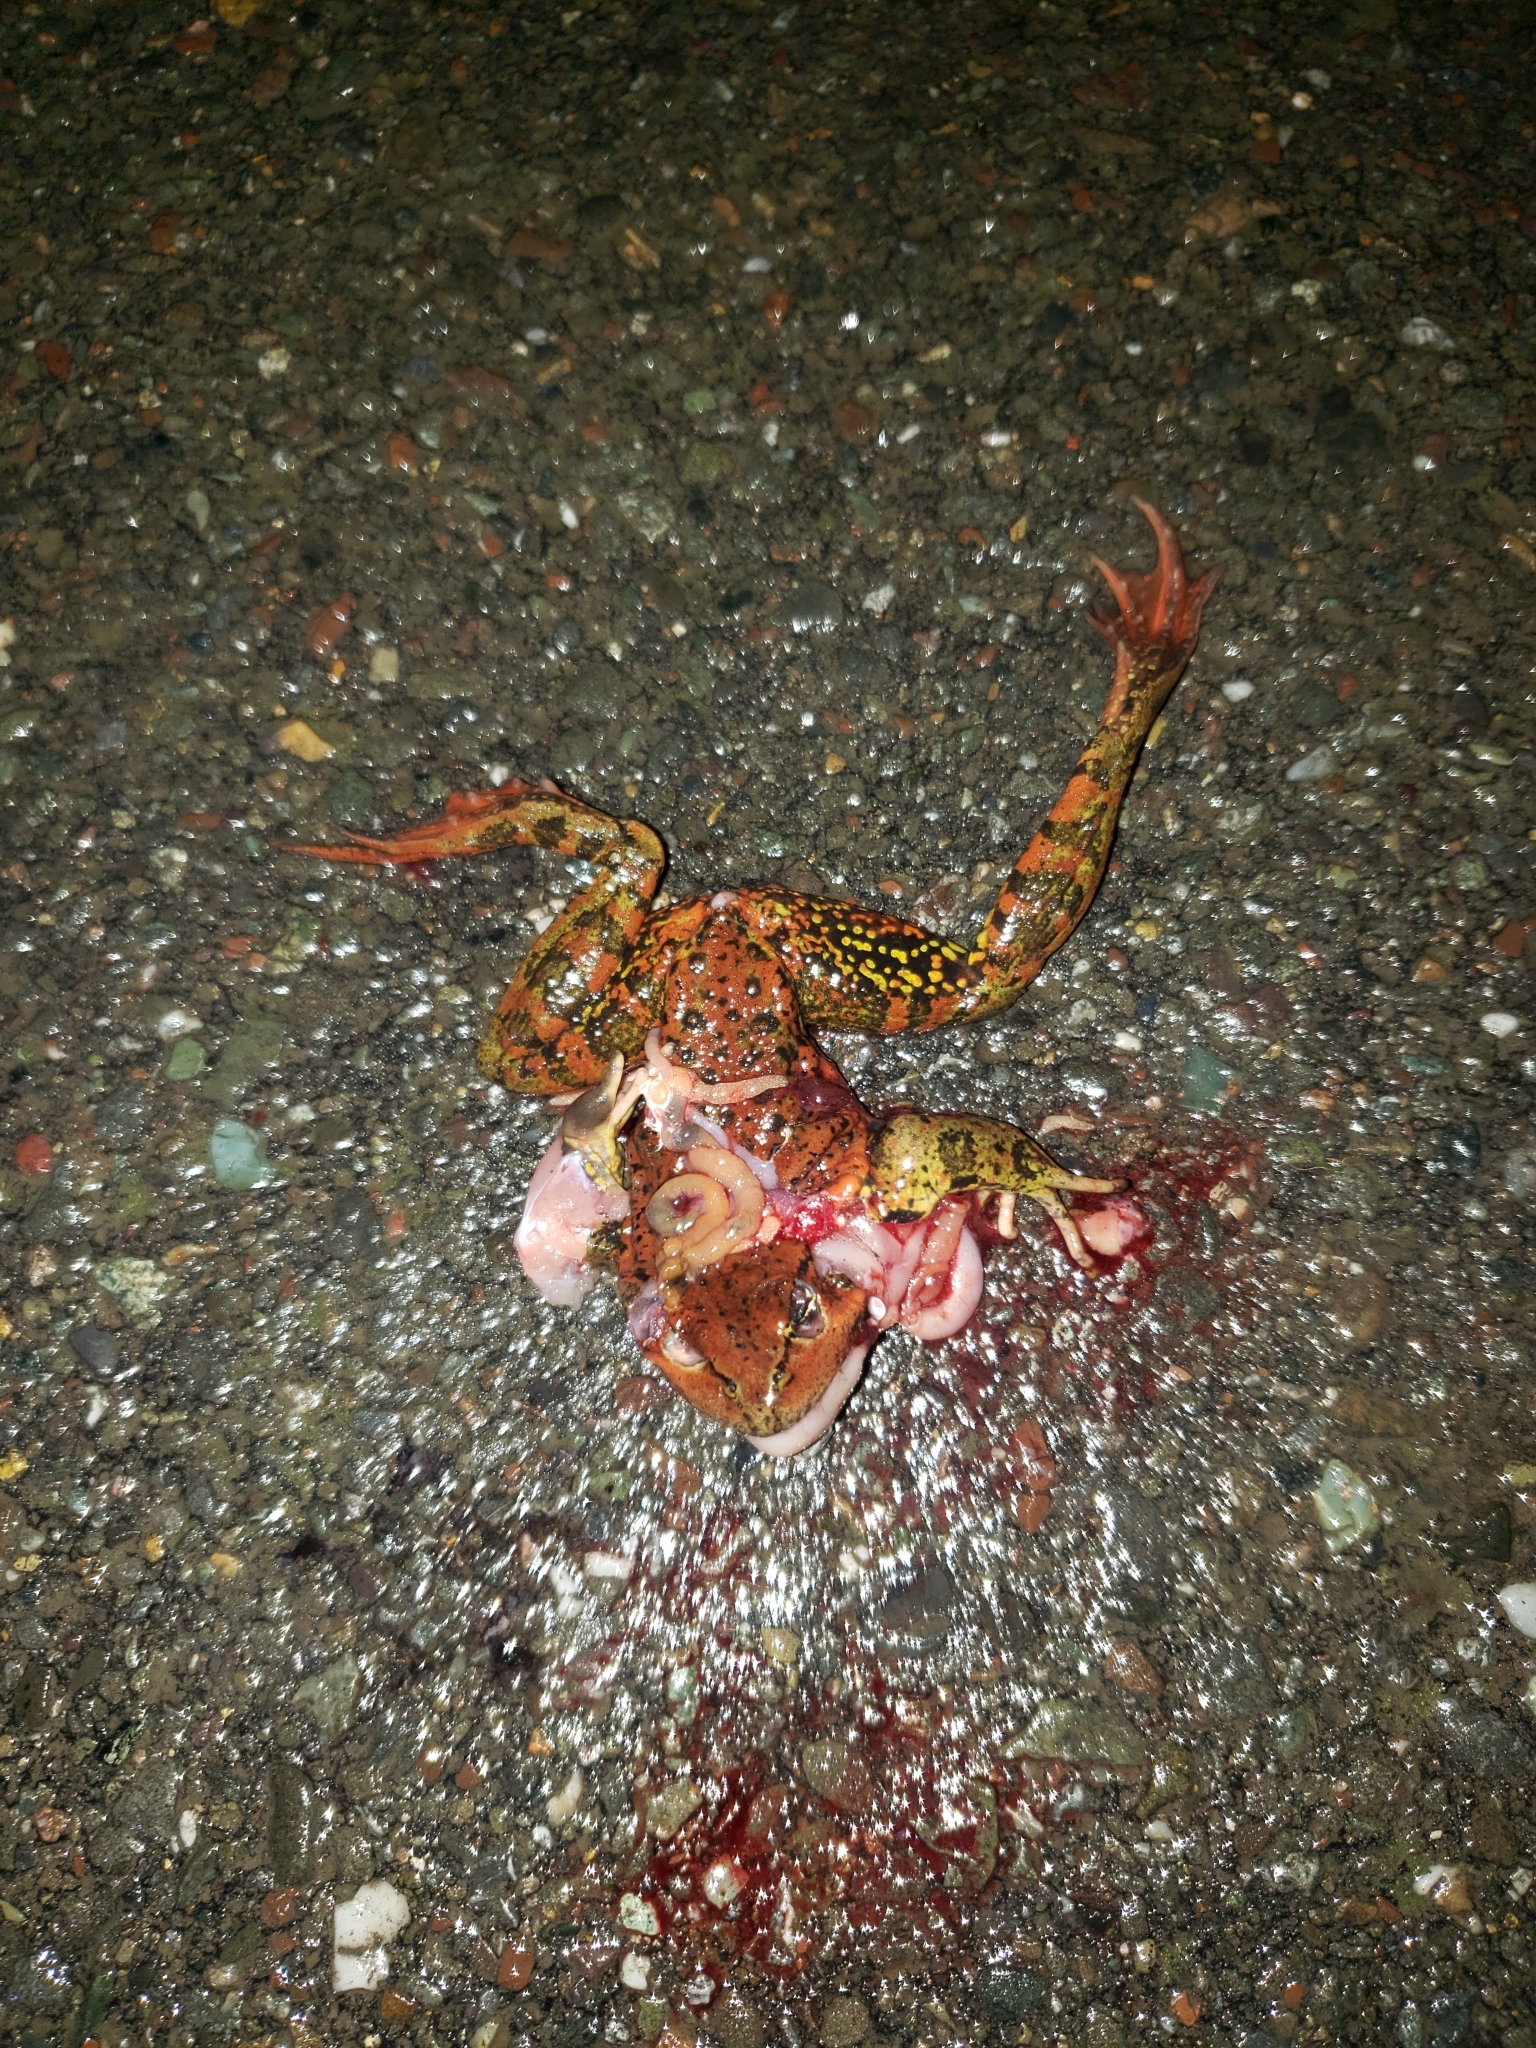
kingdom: Animalia
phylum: Chordata
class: Amphibia
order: Anura
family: Ranidae
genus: Rana
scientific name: Rana draytonii
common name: California red-legged frog
